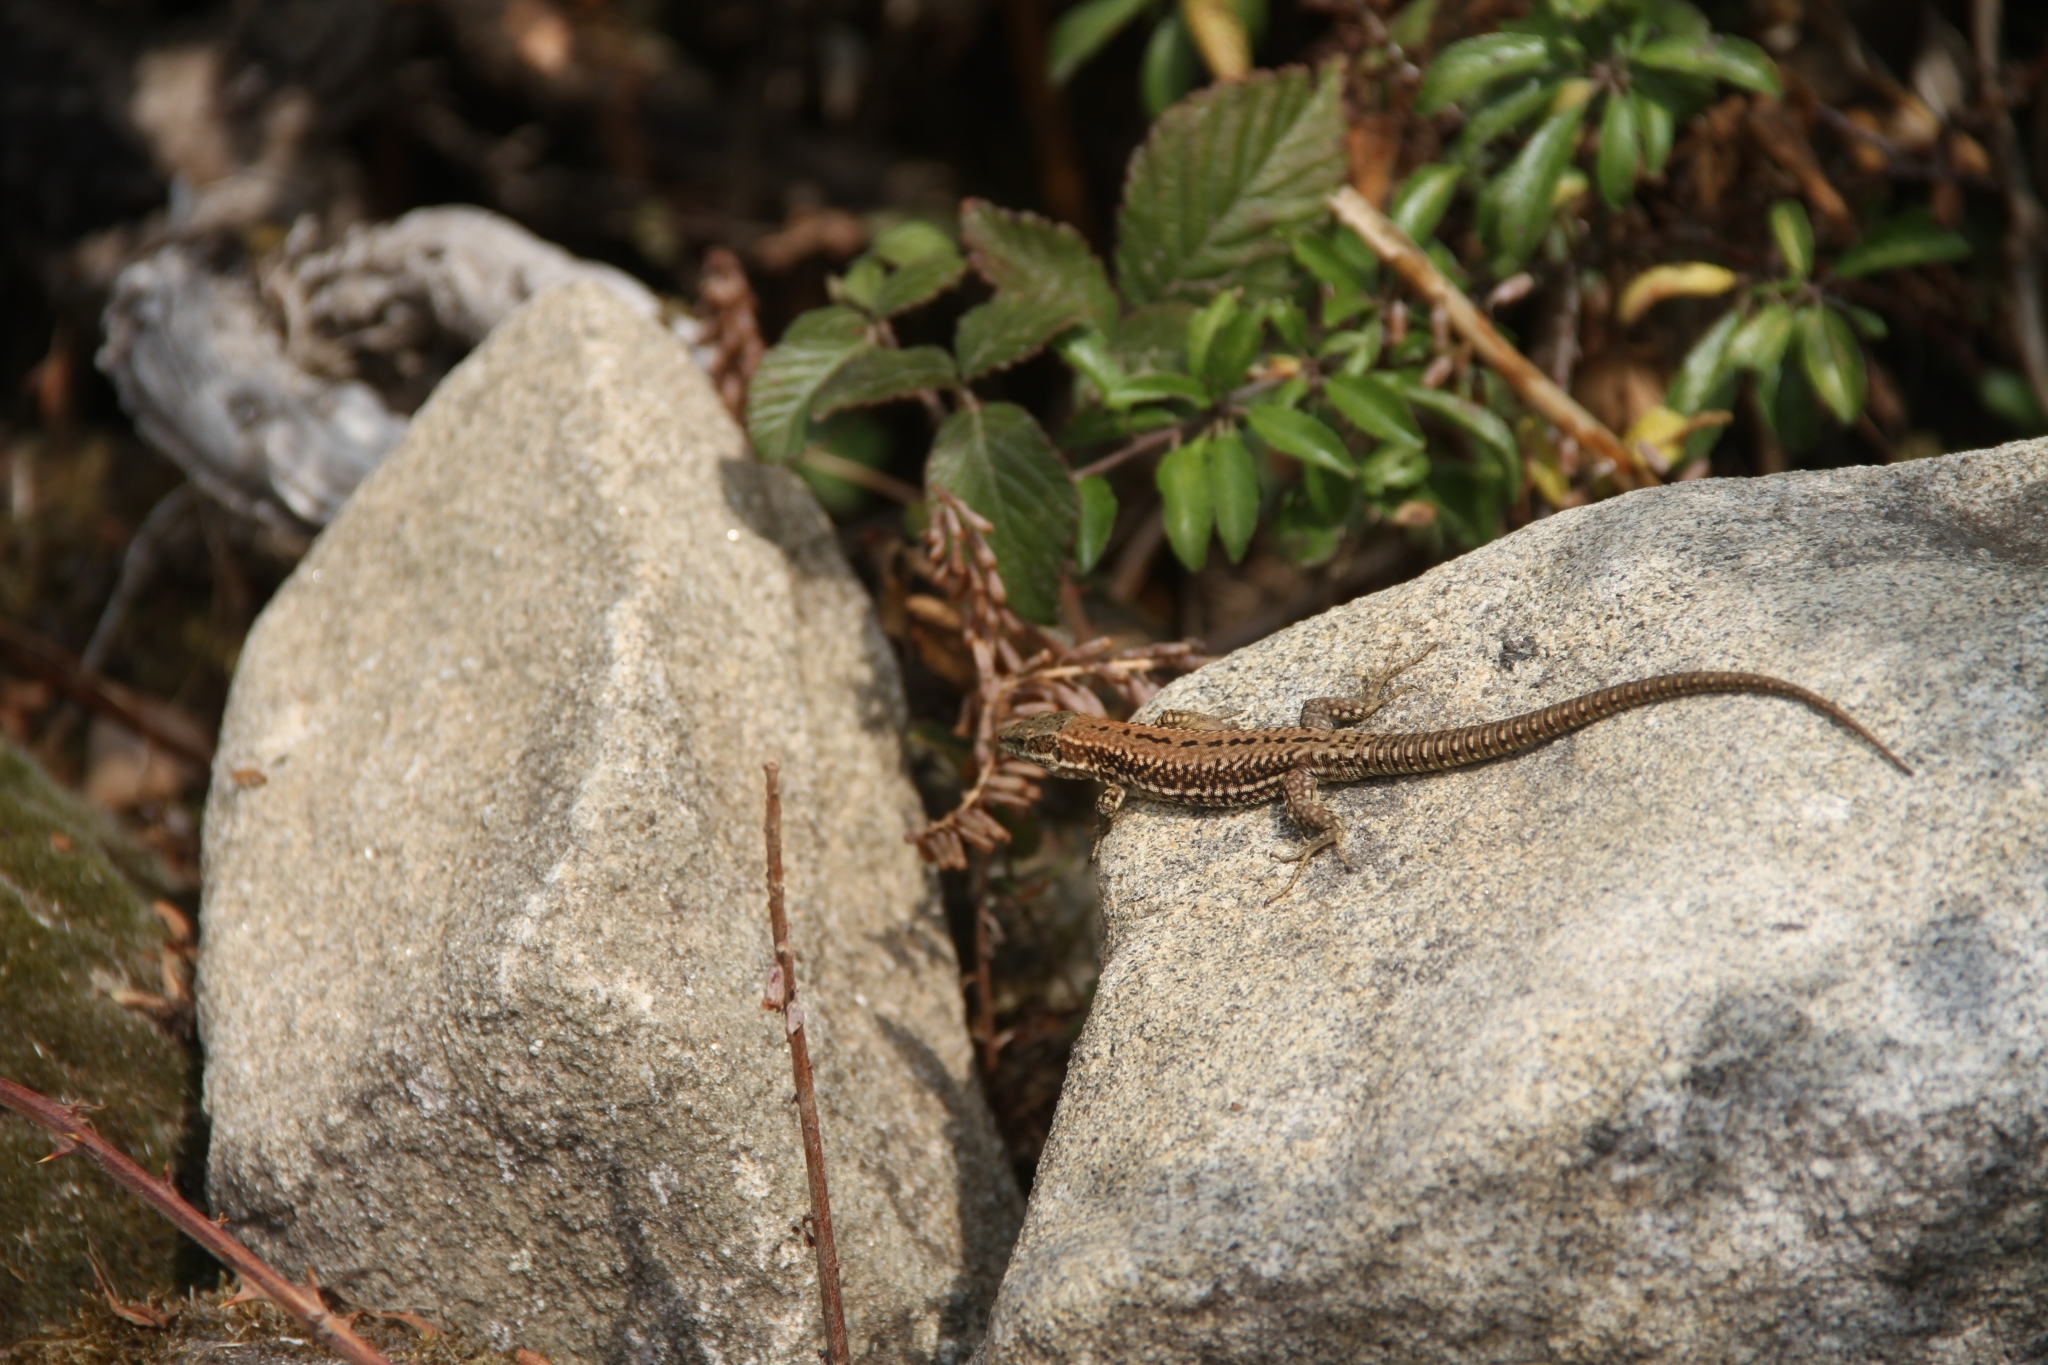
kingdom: Animalia
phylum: Chordata
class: Squamata
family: Lacertidae
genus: Podarcis
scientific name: Podarcis muralis
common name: Common wall lizard
